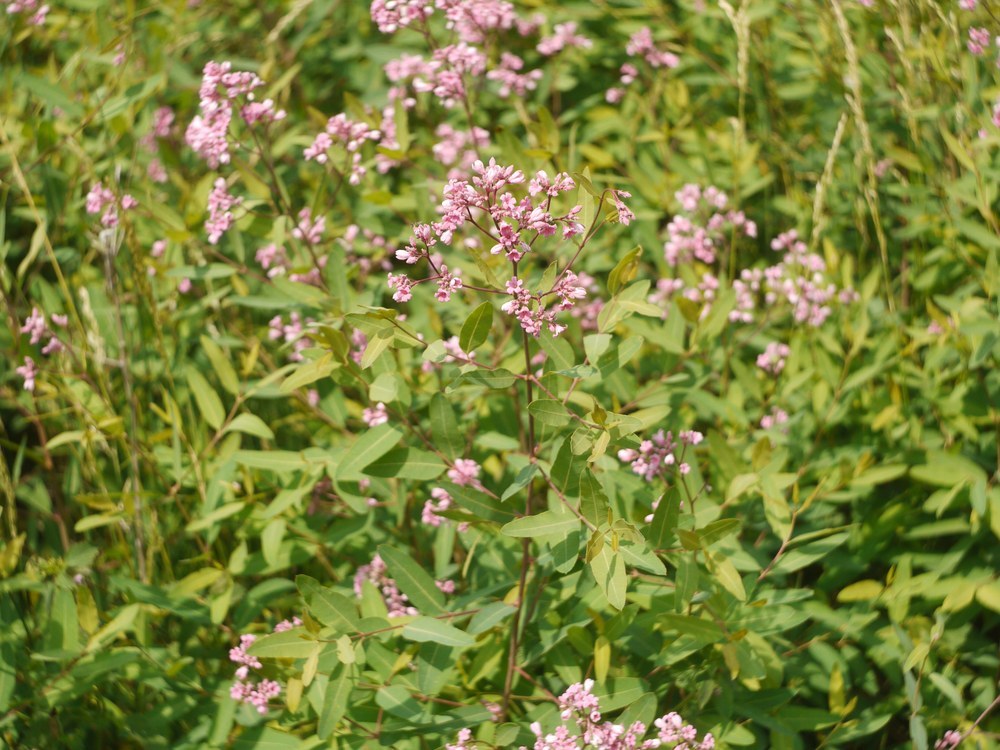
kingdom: Plantae
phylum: Tracheophyta
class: Magnoliopsida
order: Gentianales
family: Apocynaceae
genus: Poacynum
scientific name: Poacynum tauricum
